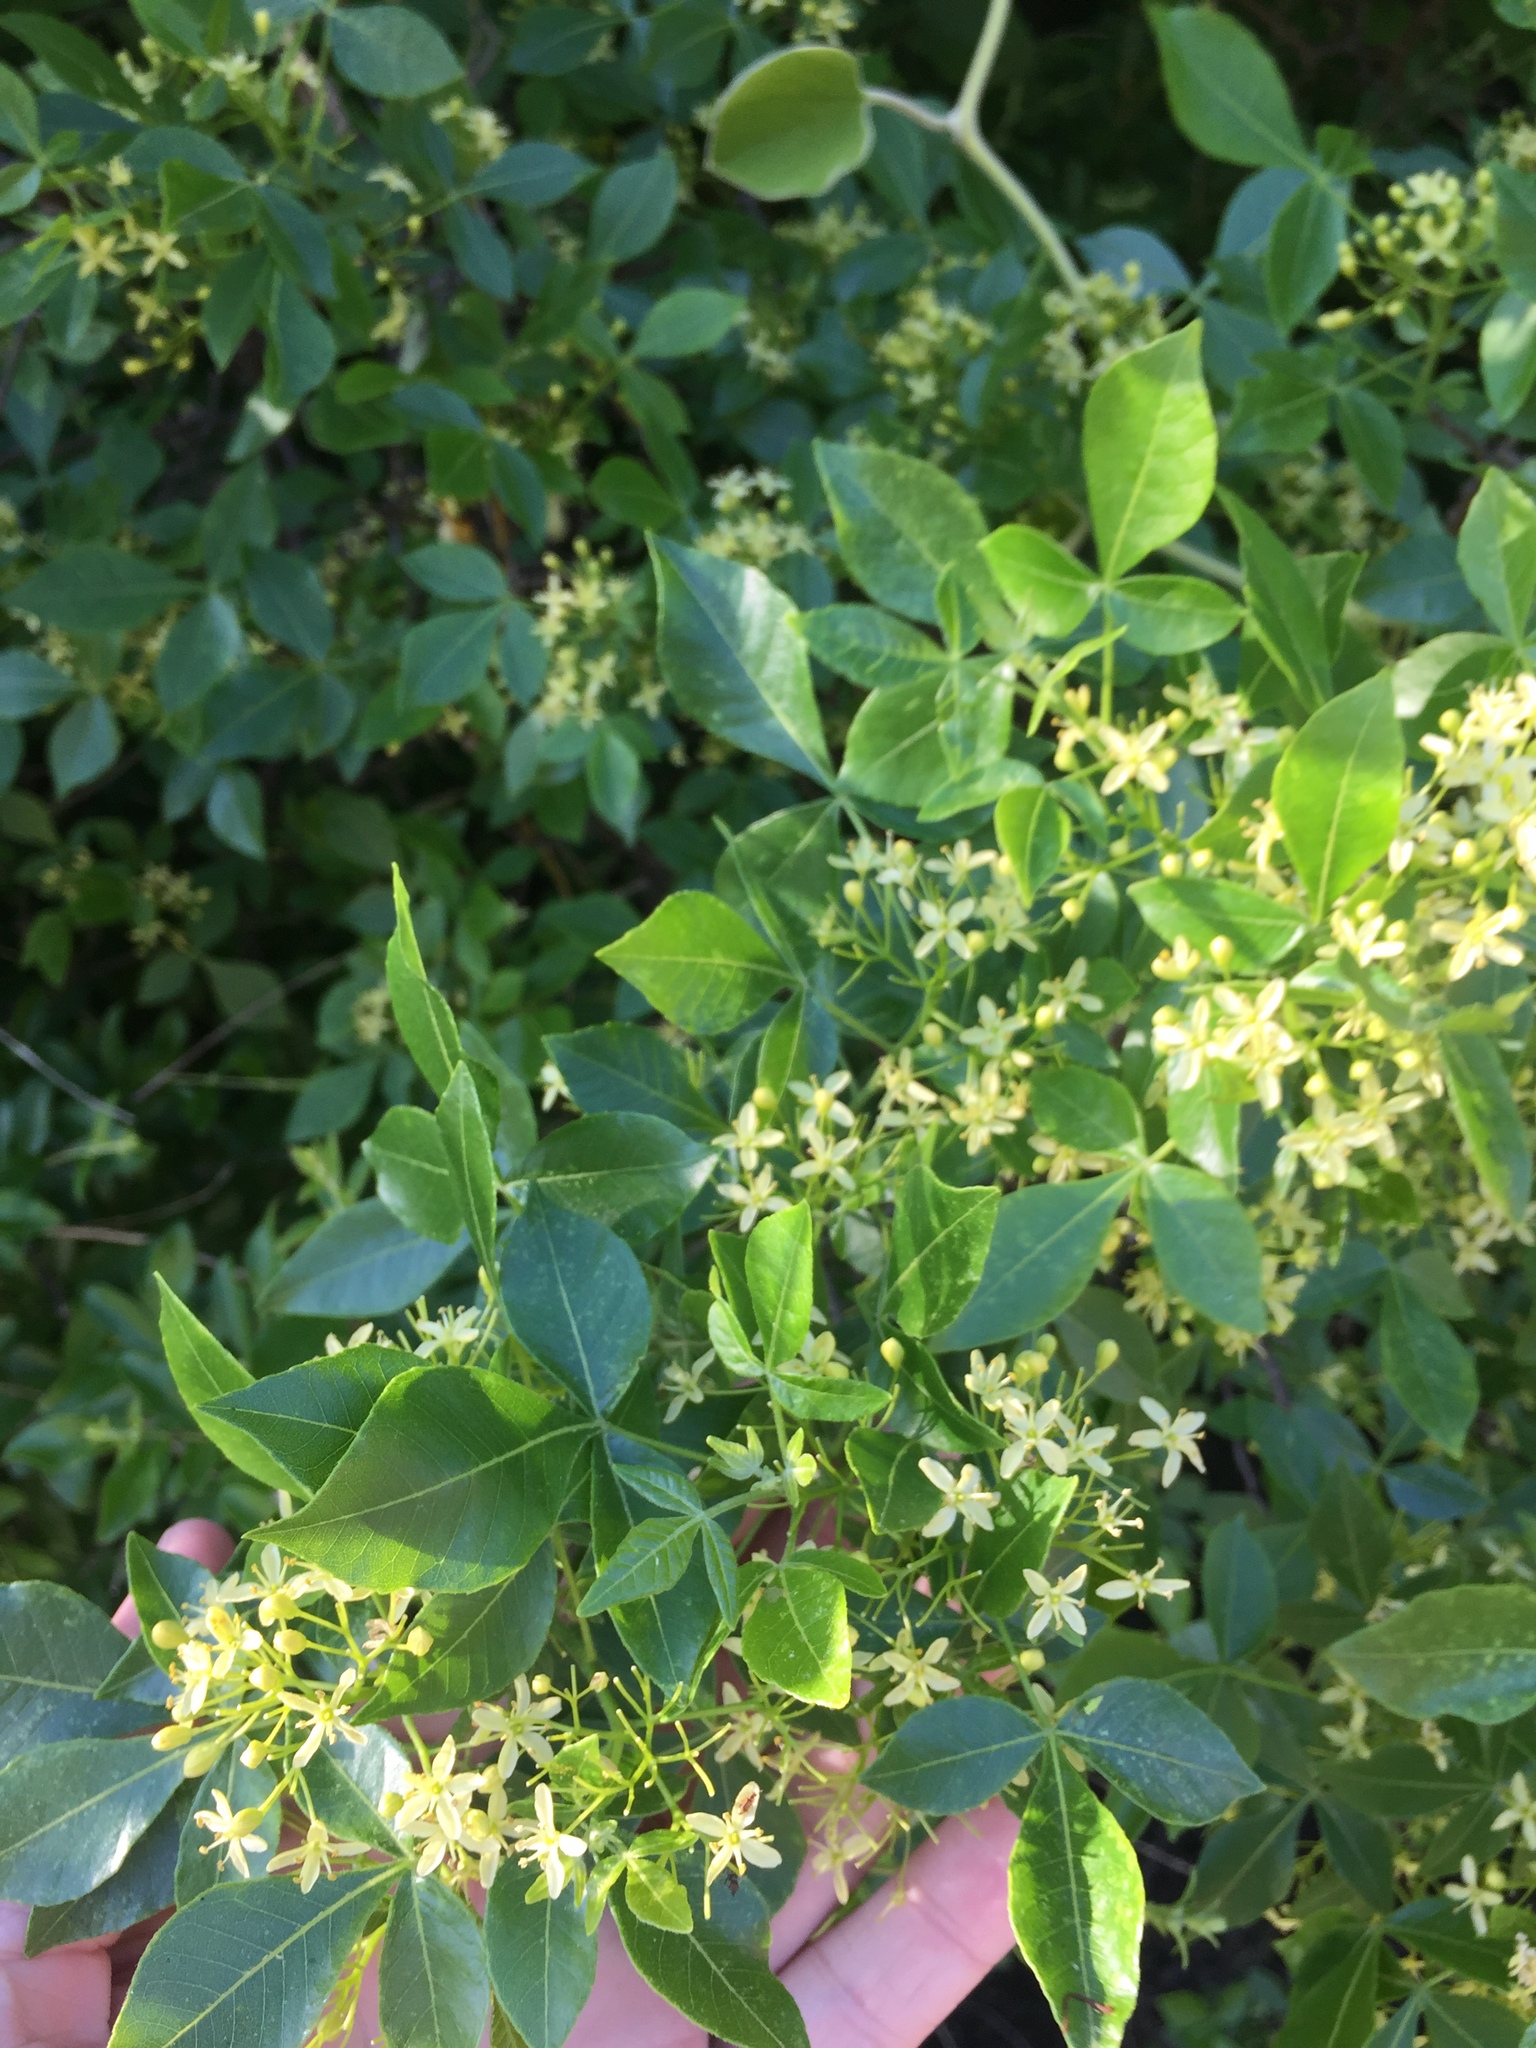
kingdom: Plantae
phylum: Tracheophyta
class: Magnoliopsida
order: Sapindales
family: Rutaceae
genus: Ptelea
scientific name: Ptelea trifoliata
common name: Common hop-tree
